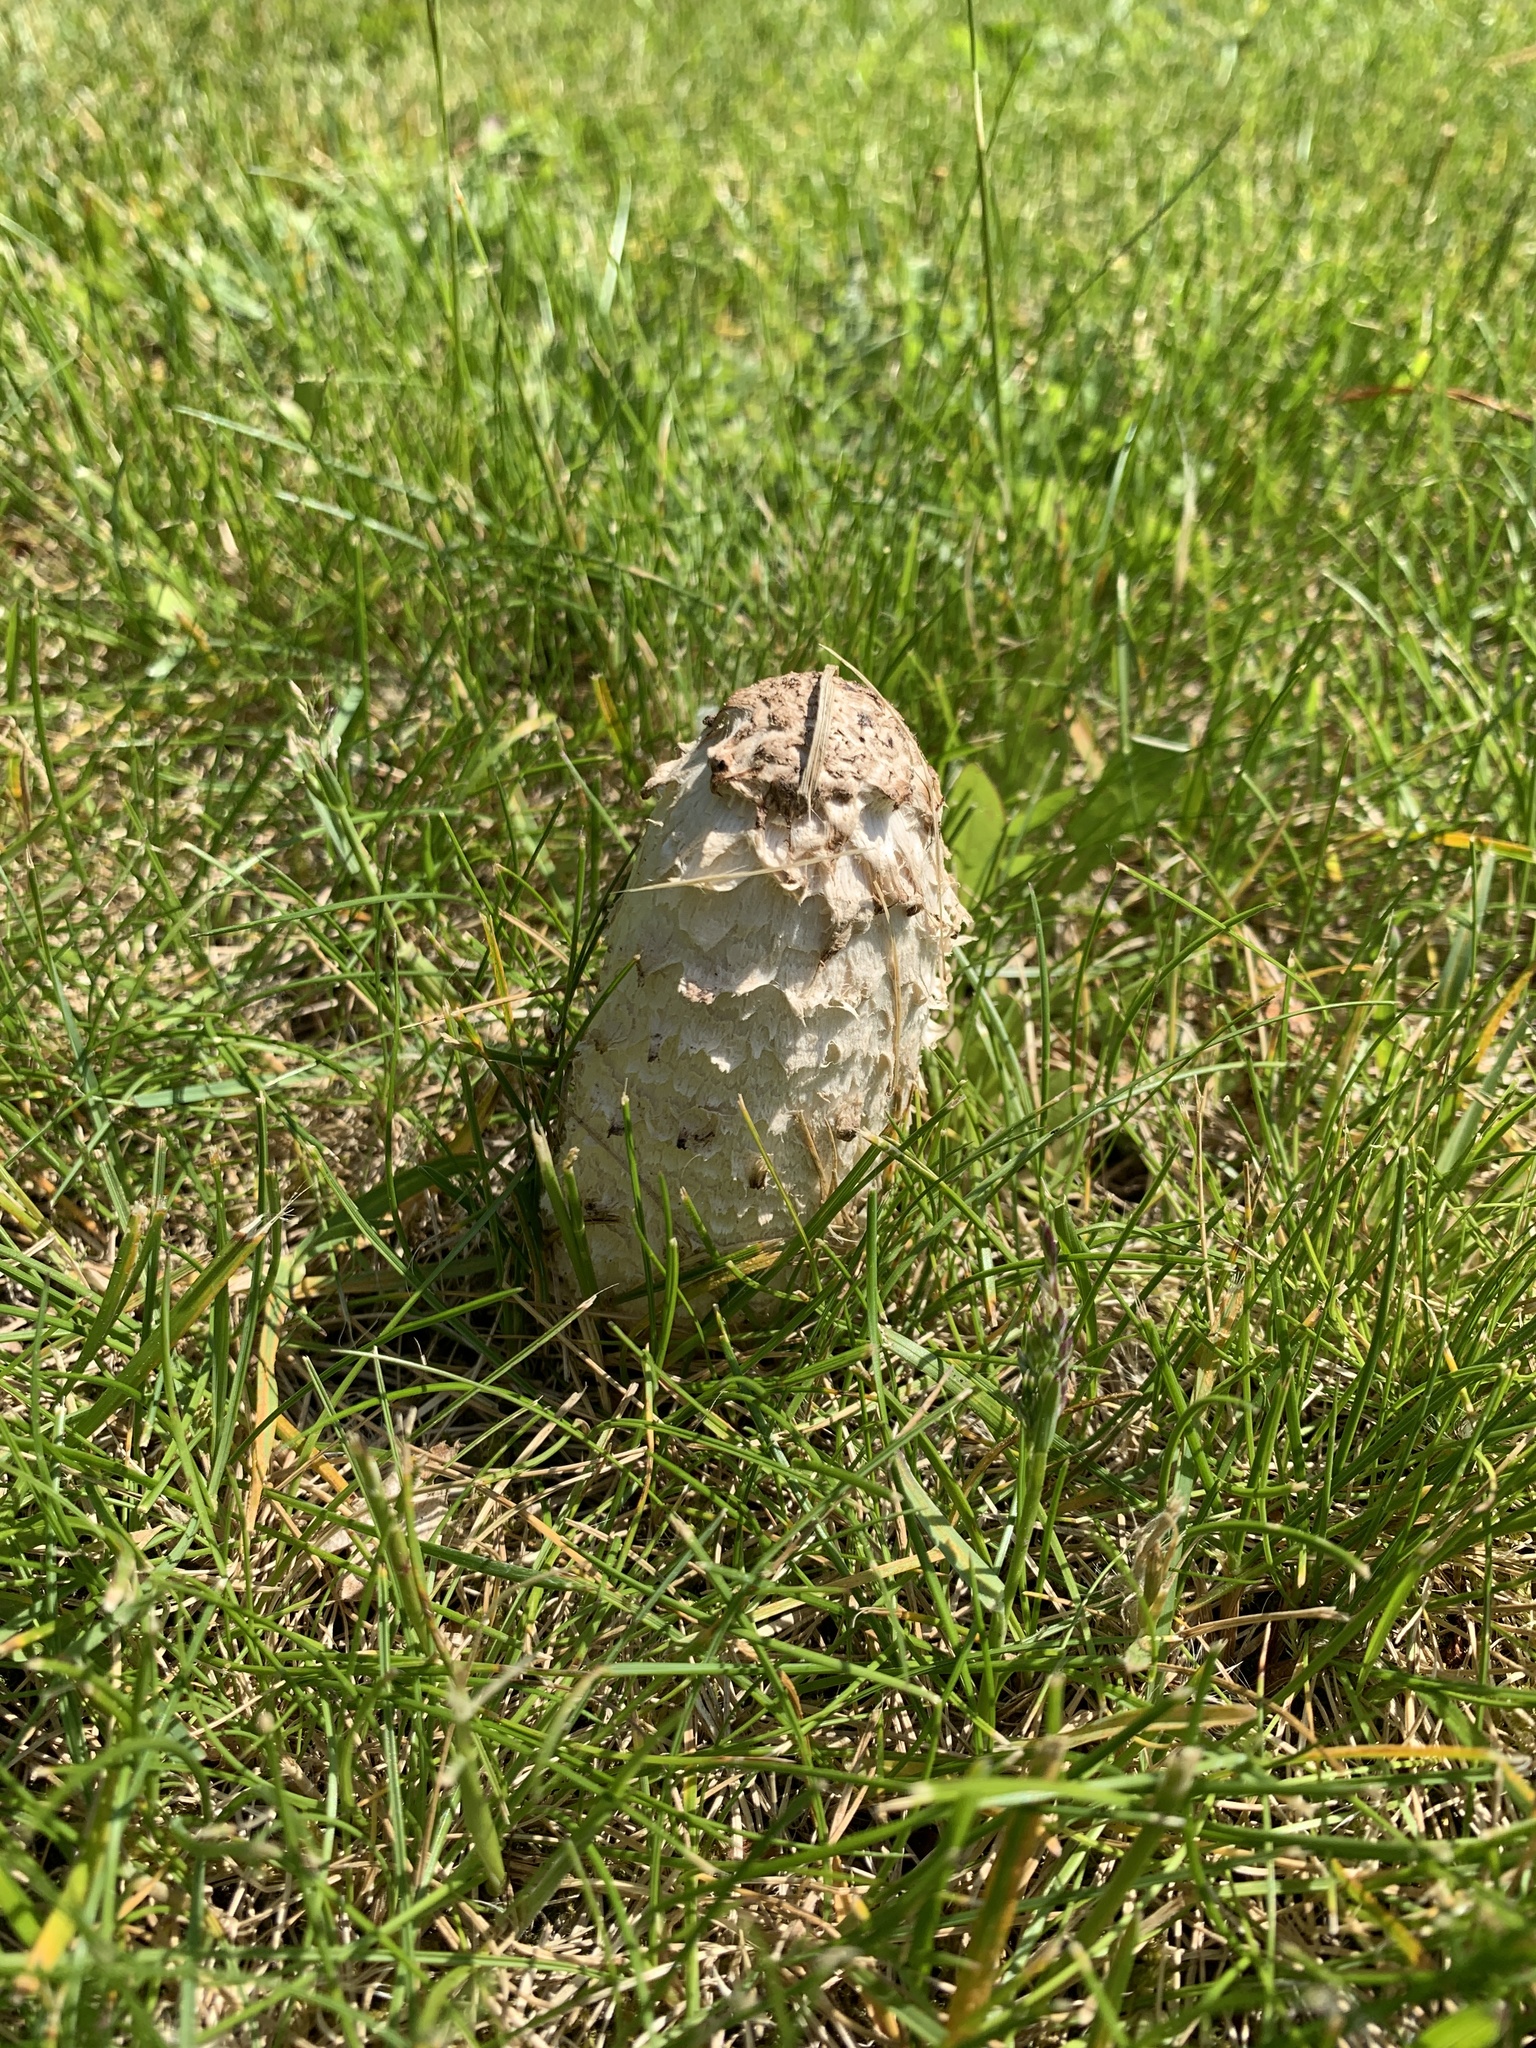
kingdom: Fungi
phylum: Basidiomycota
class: Agaricomycetes
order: Agaricales
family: Agaricaceae
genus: Coprinus
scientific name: Coprinus comatus
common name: Lawyer's wig
